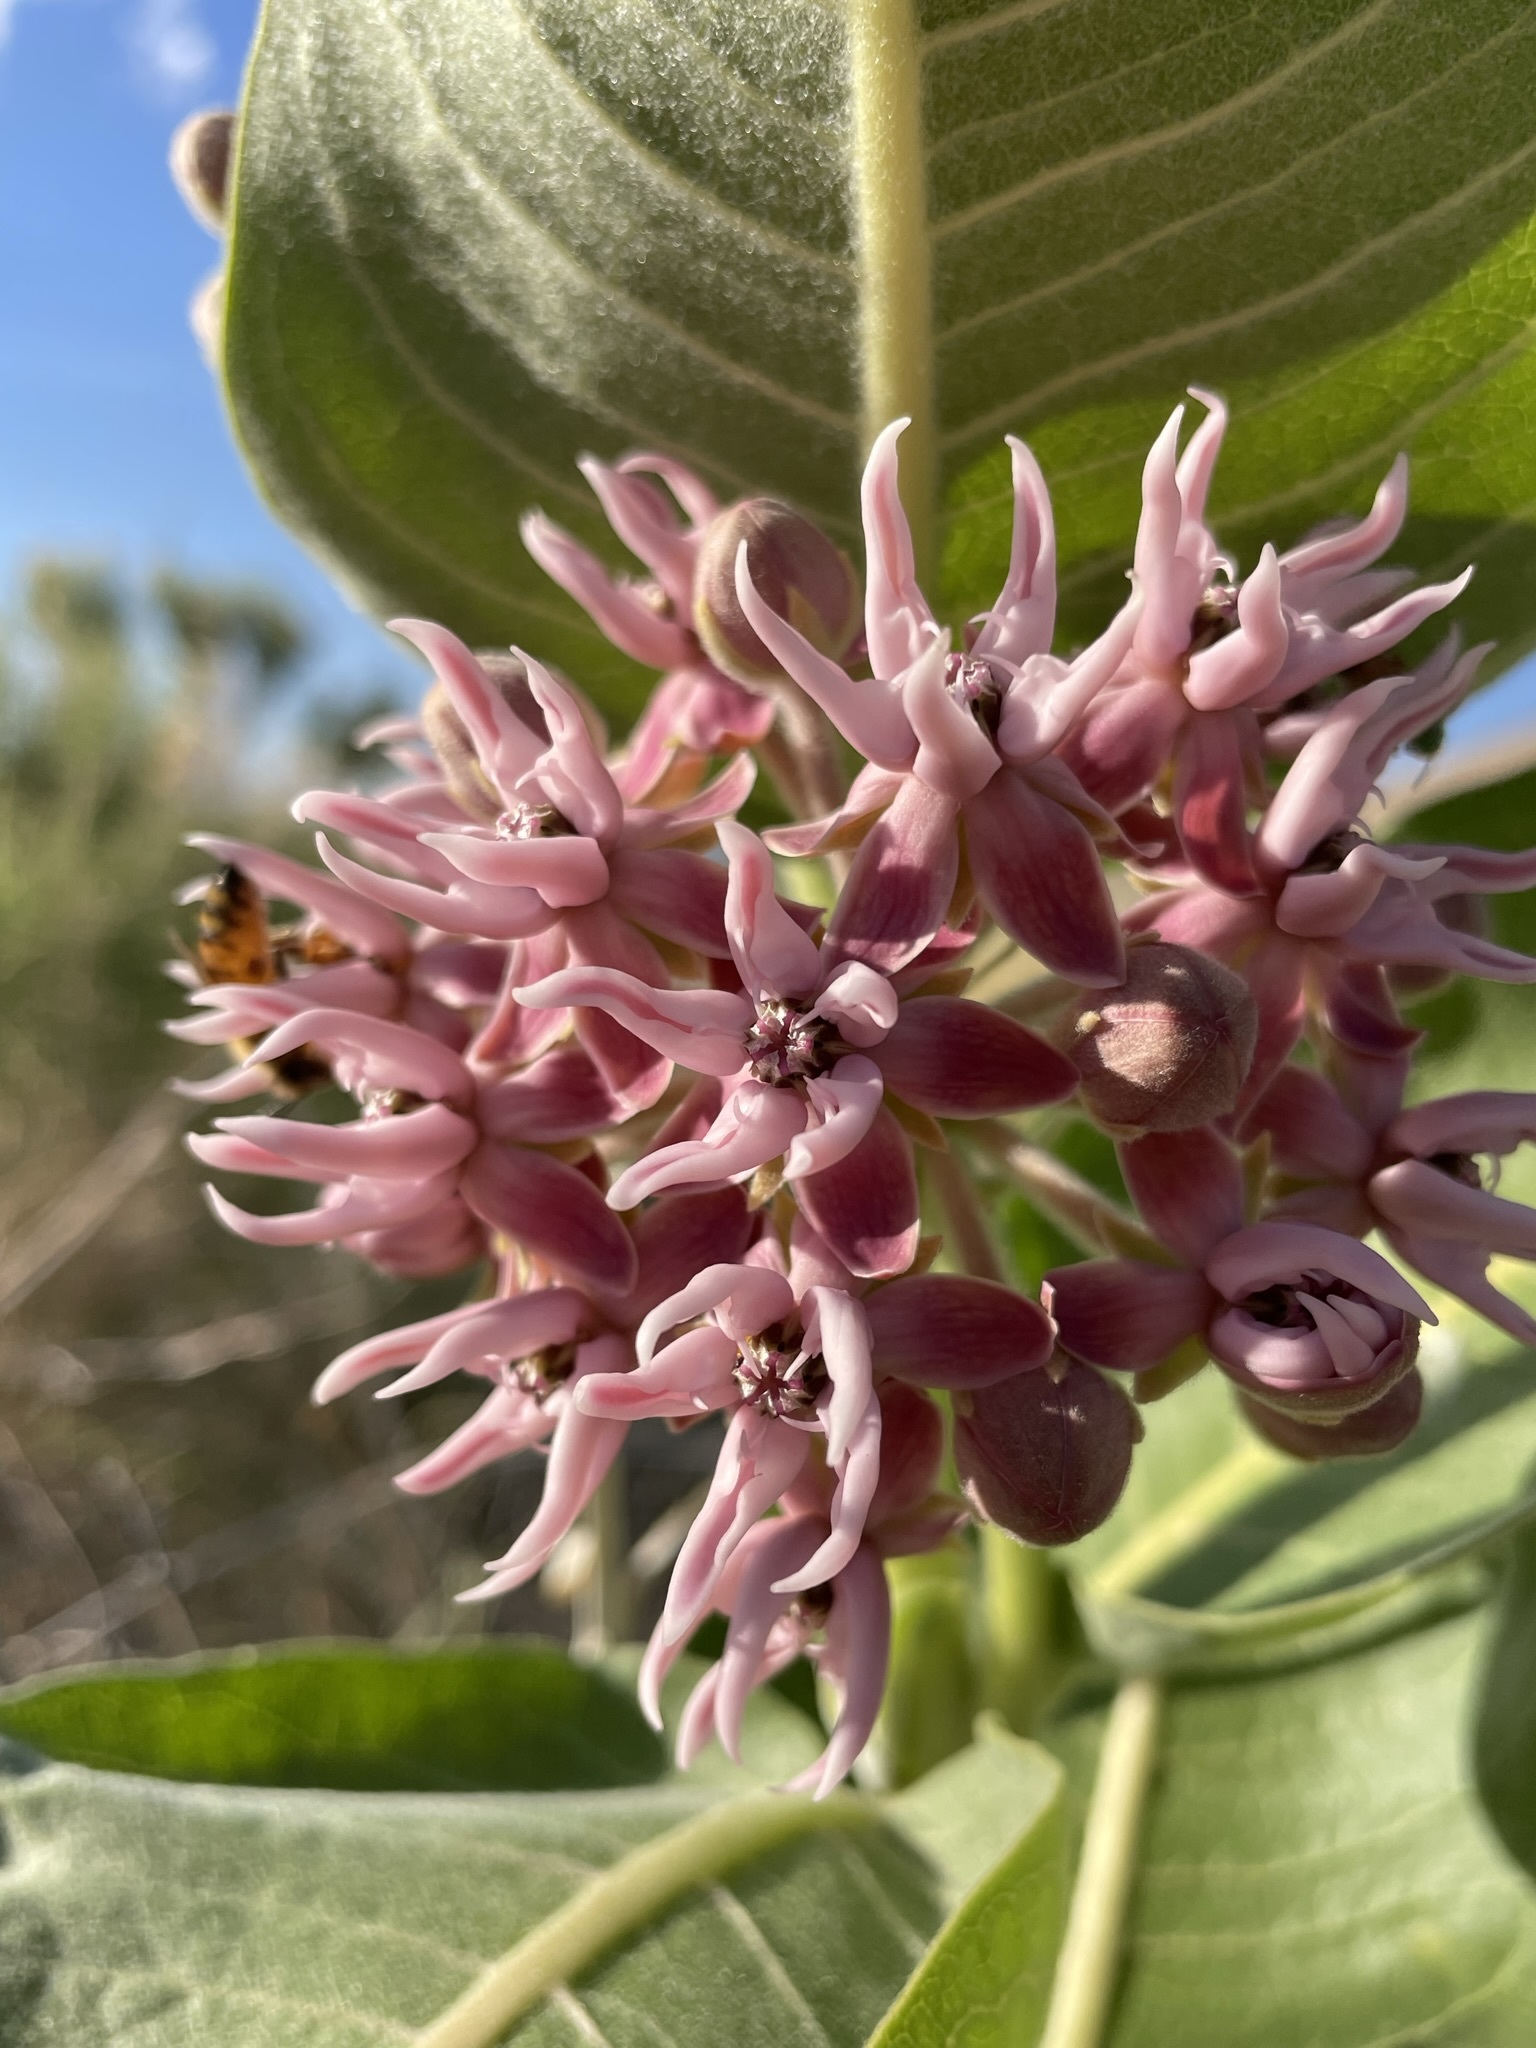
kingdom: Plantae
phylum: Tracheophyta
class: Magnoliopsida
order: Gentianales
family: Apocynaceae
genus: Asclepias
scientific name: Asclepias speciosa
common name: Showy milkweed
